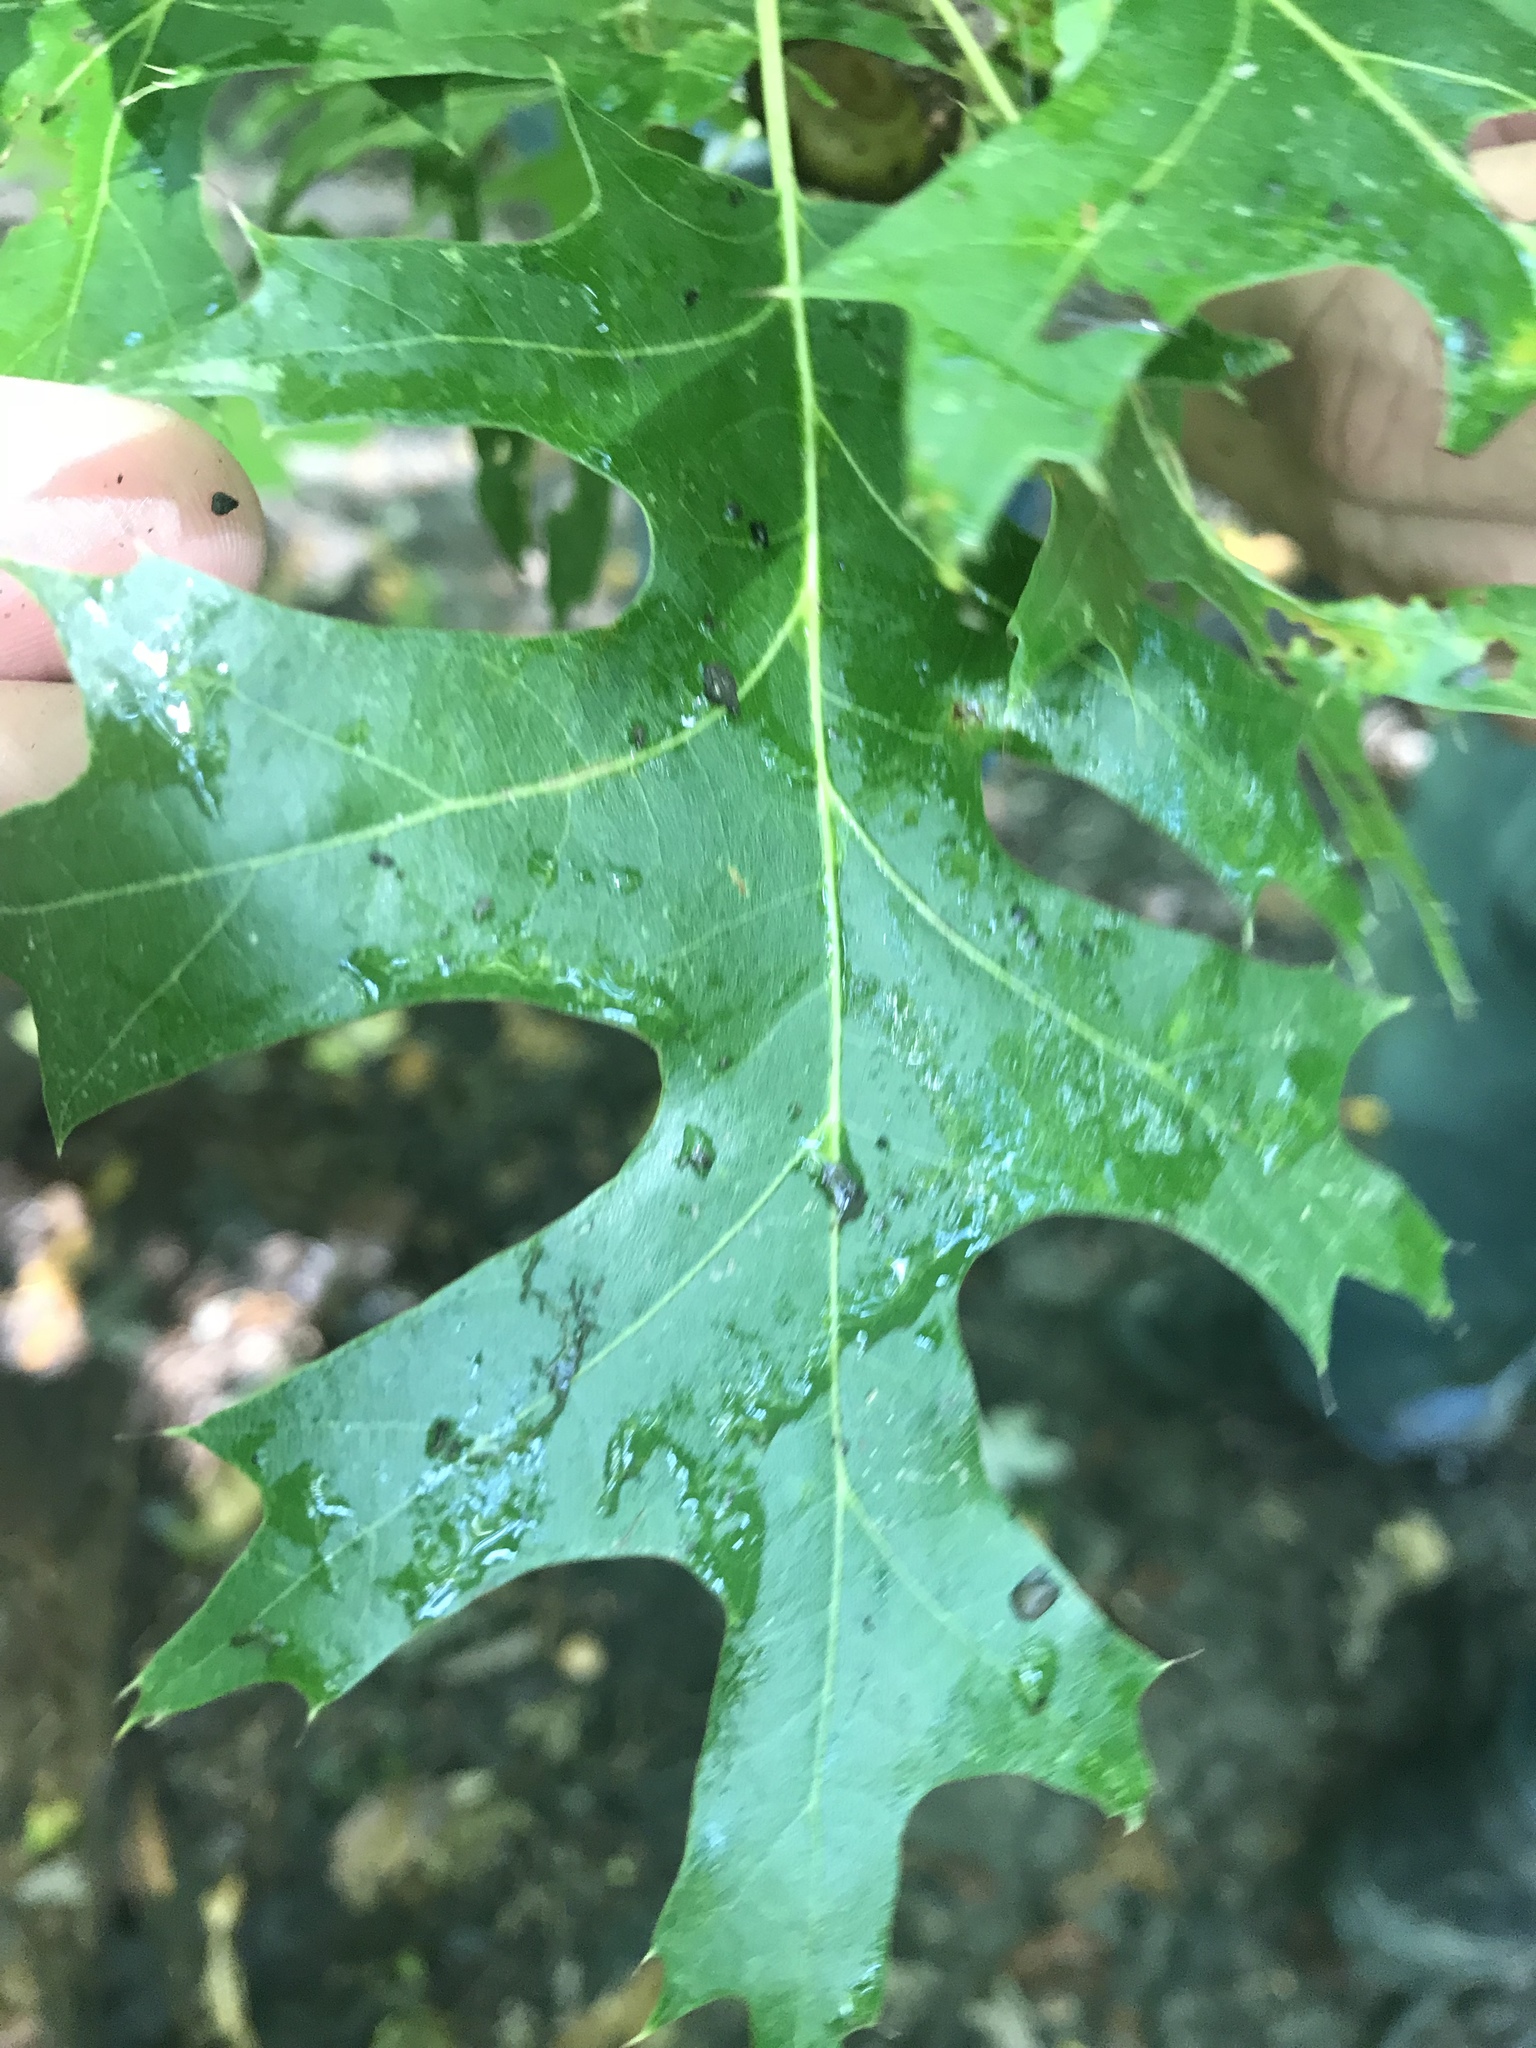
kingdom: Plantae
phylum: Tracheophyta
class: Magnoliopsida
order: Fagales
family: Fagaceae
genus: Quercus
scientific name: Quercus palustris
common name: Pin oak
